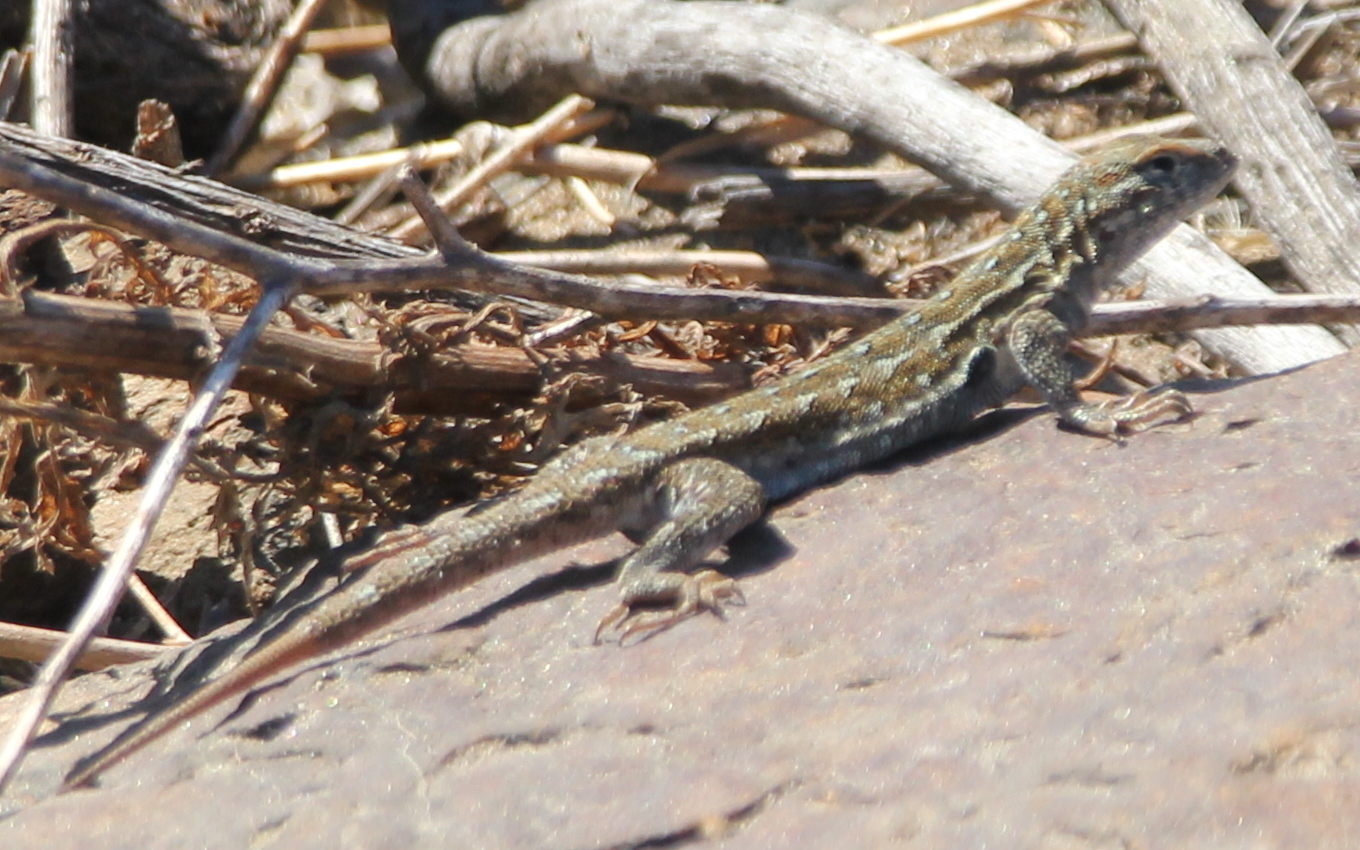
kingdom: Animalia
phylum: Chordata
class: Squamata
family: Phrynosomatidae
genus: Uta
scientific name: Uta stansburiana
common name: Side-blotched lizard
